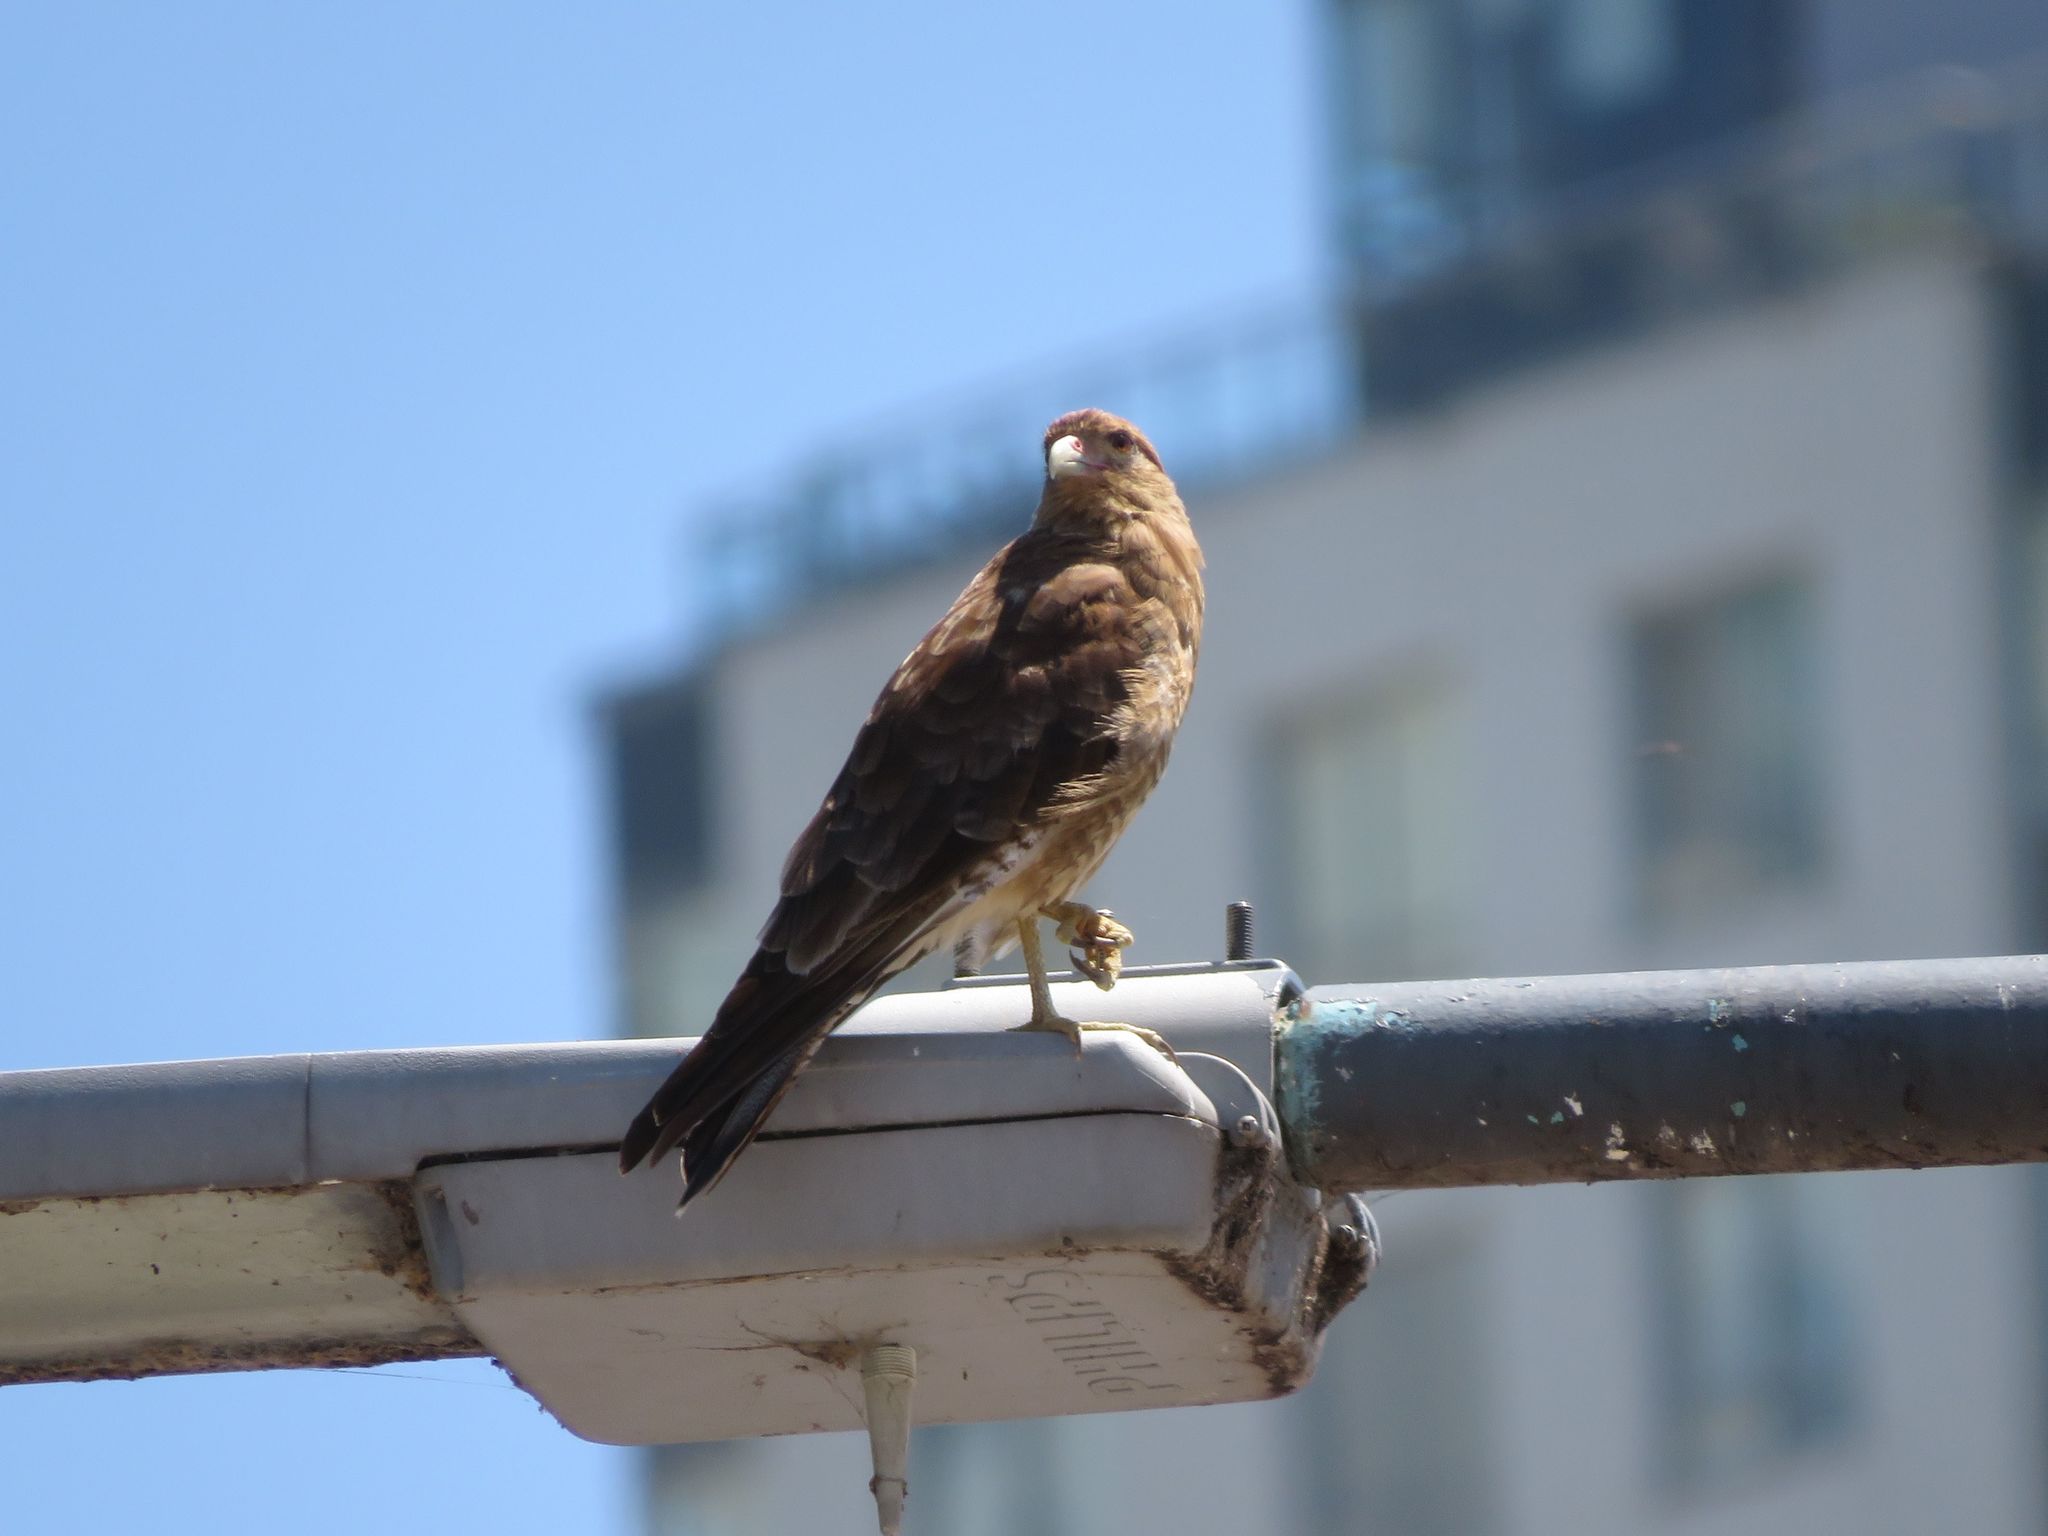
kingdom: Animalia
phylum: Chordata
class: Aves
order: Falconiformes
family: Falconidae
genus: Daptrius
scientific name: Daptrius
